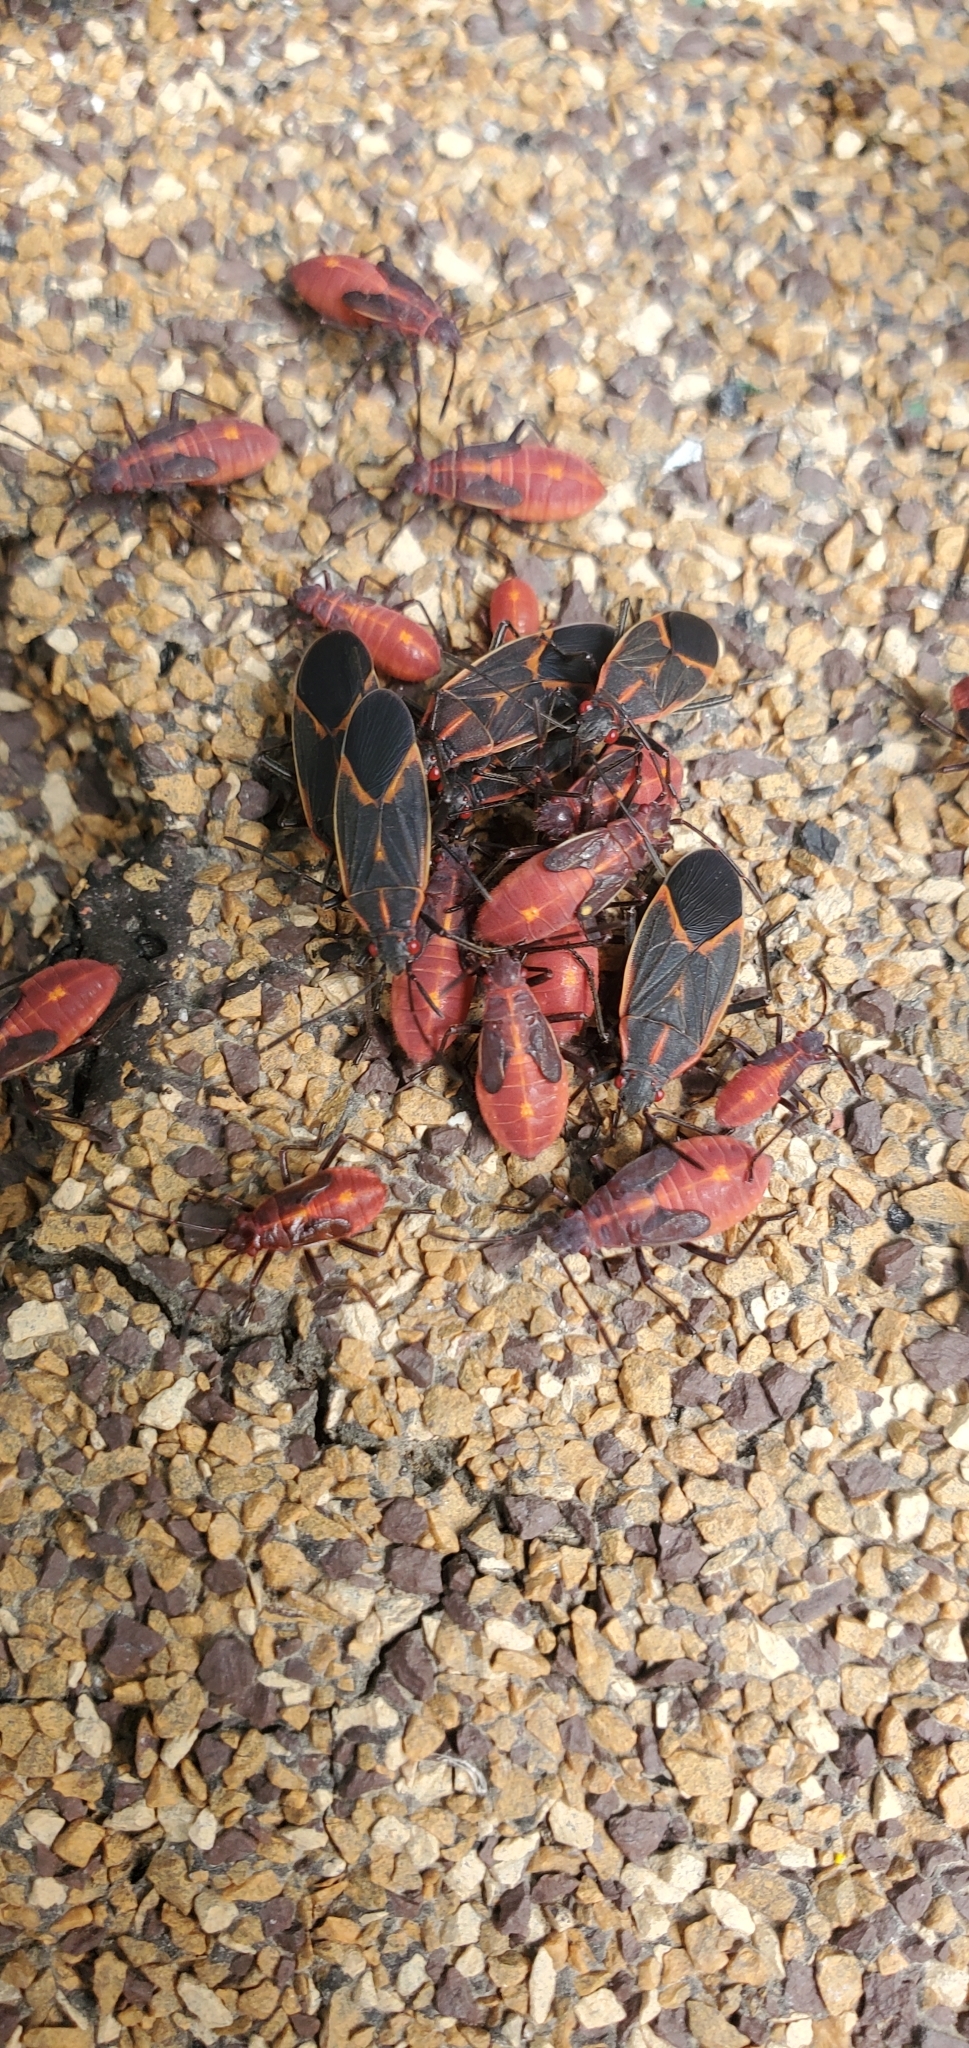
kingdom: Animalia
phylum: Arthropoda
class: Insecta
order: Hemiptera
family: Rhopalidae
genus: Boisea
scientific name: Boisea trivittata
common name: Boxelder bug
